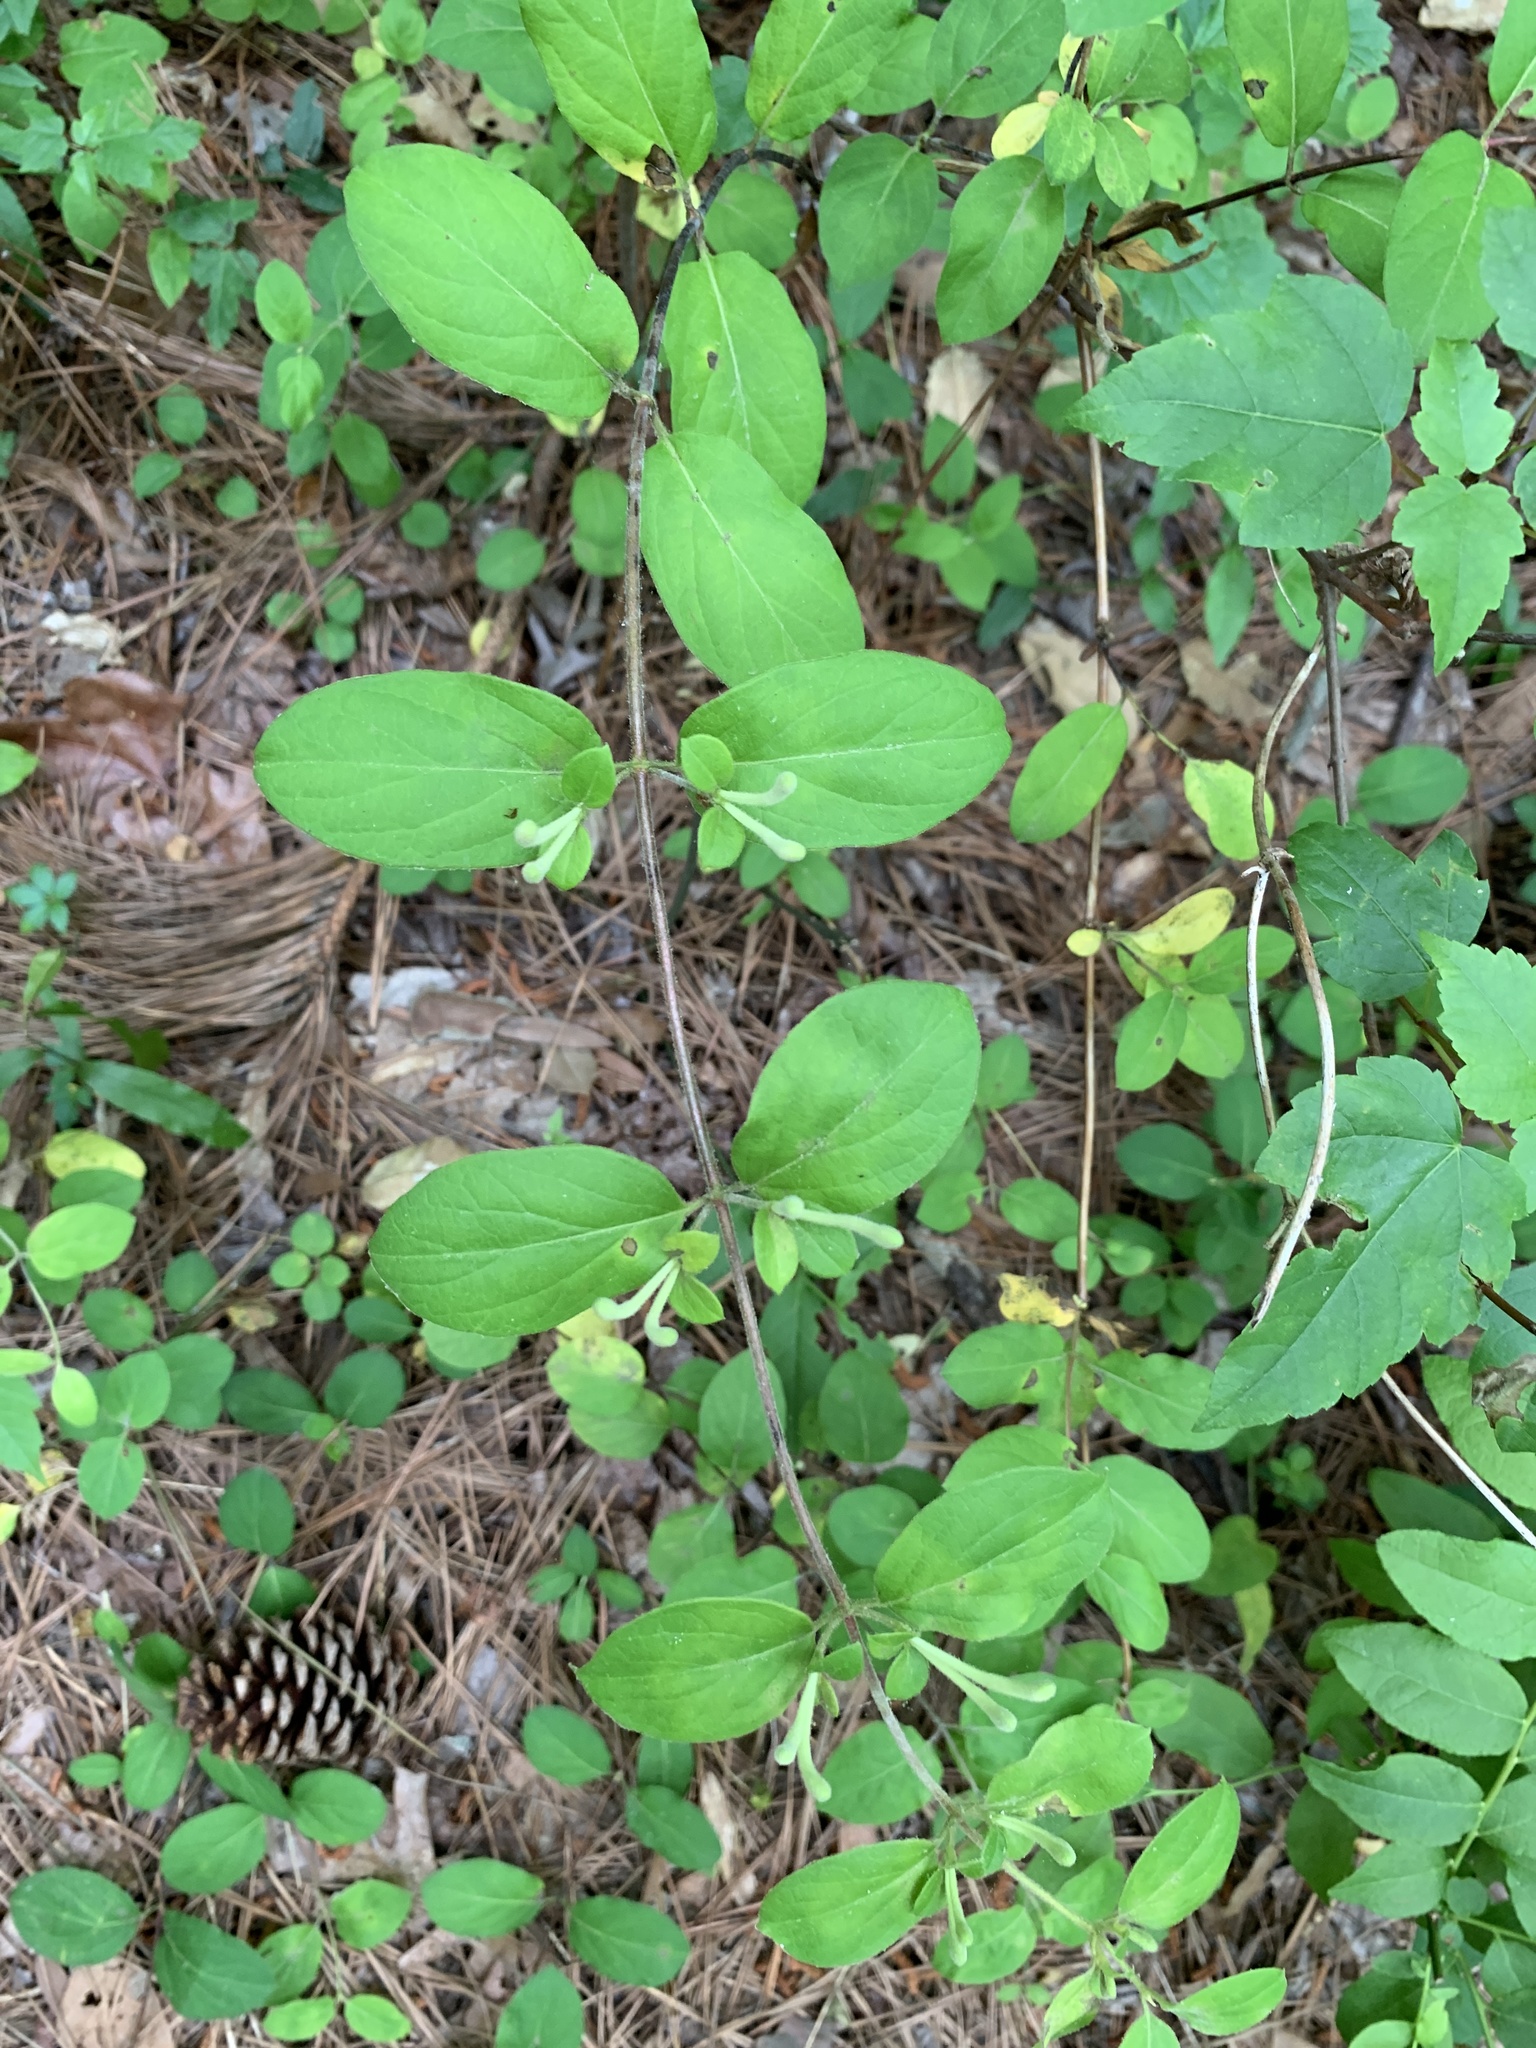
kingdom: Plantae
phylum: Tracheophyta
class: Magnoliopsida
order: Dipsacales
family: Caprifoliaceae
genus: Lonicera
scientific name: Lonicera japonica
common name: Japanese honeysuckle
